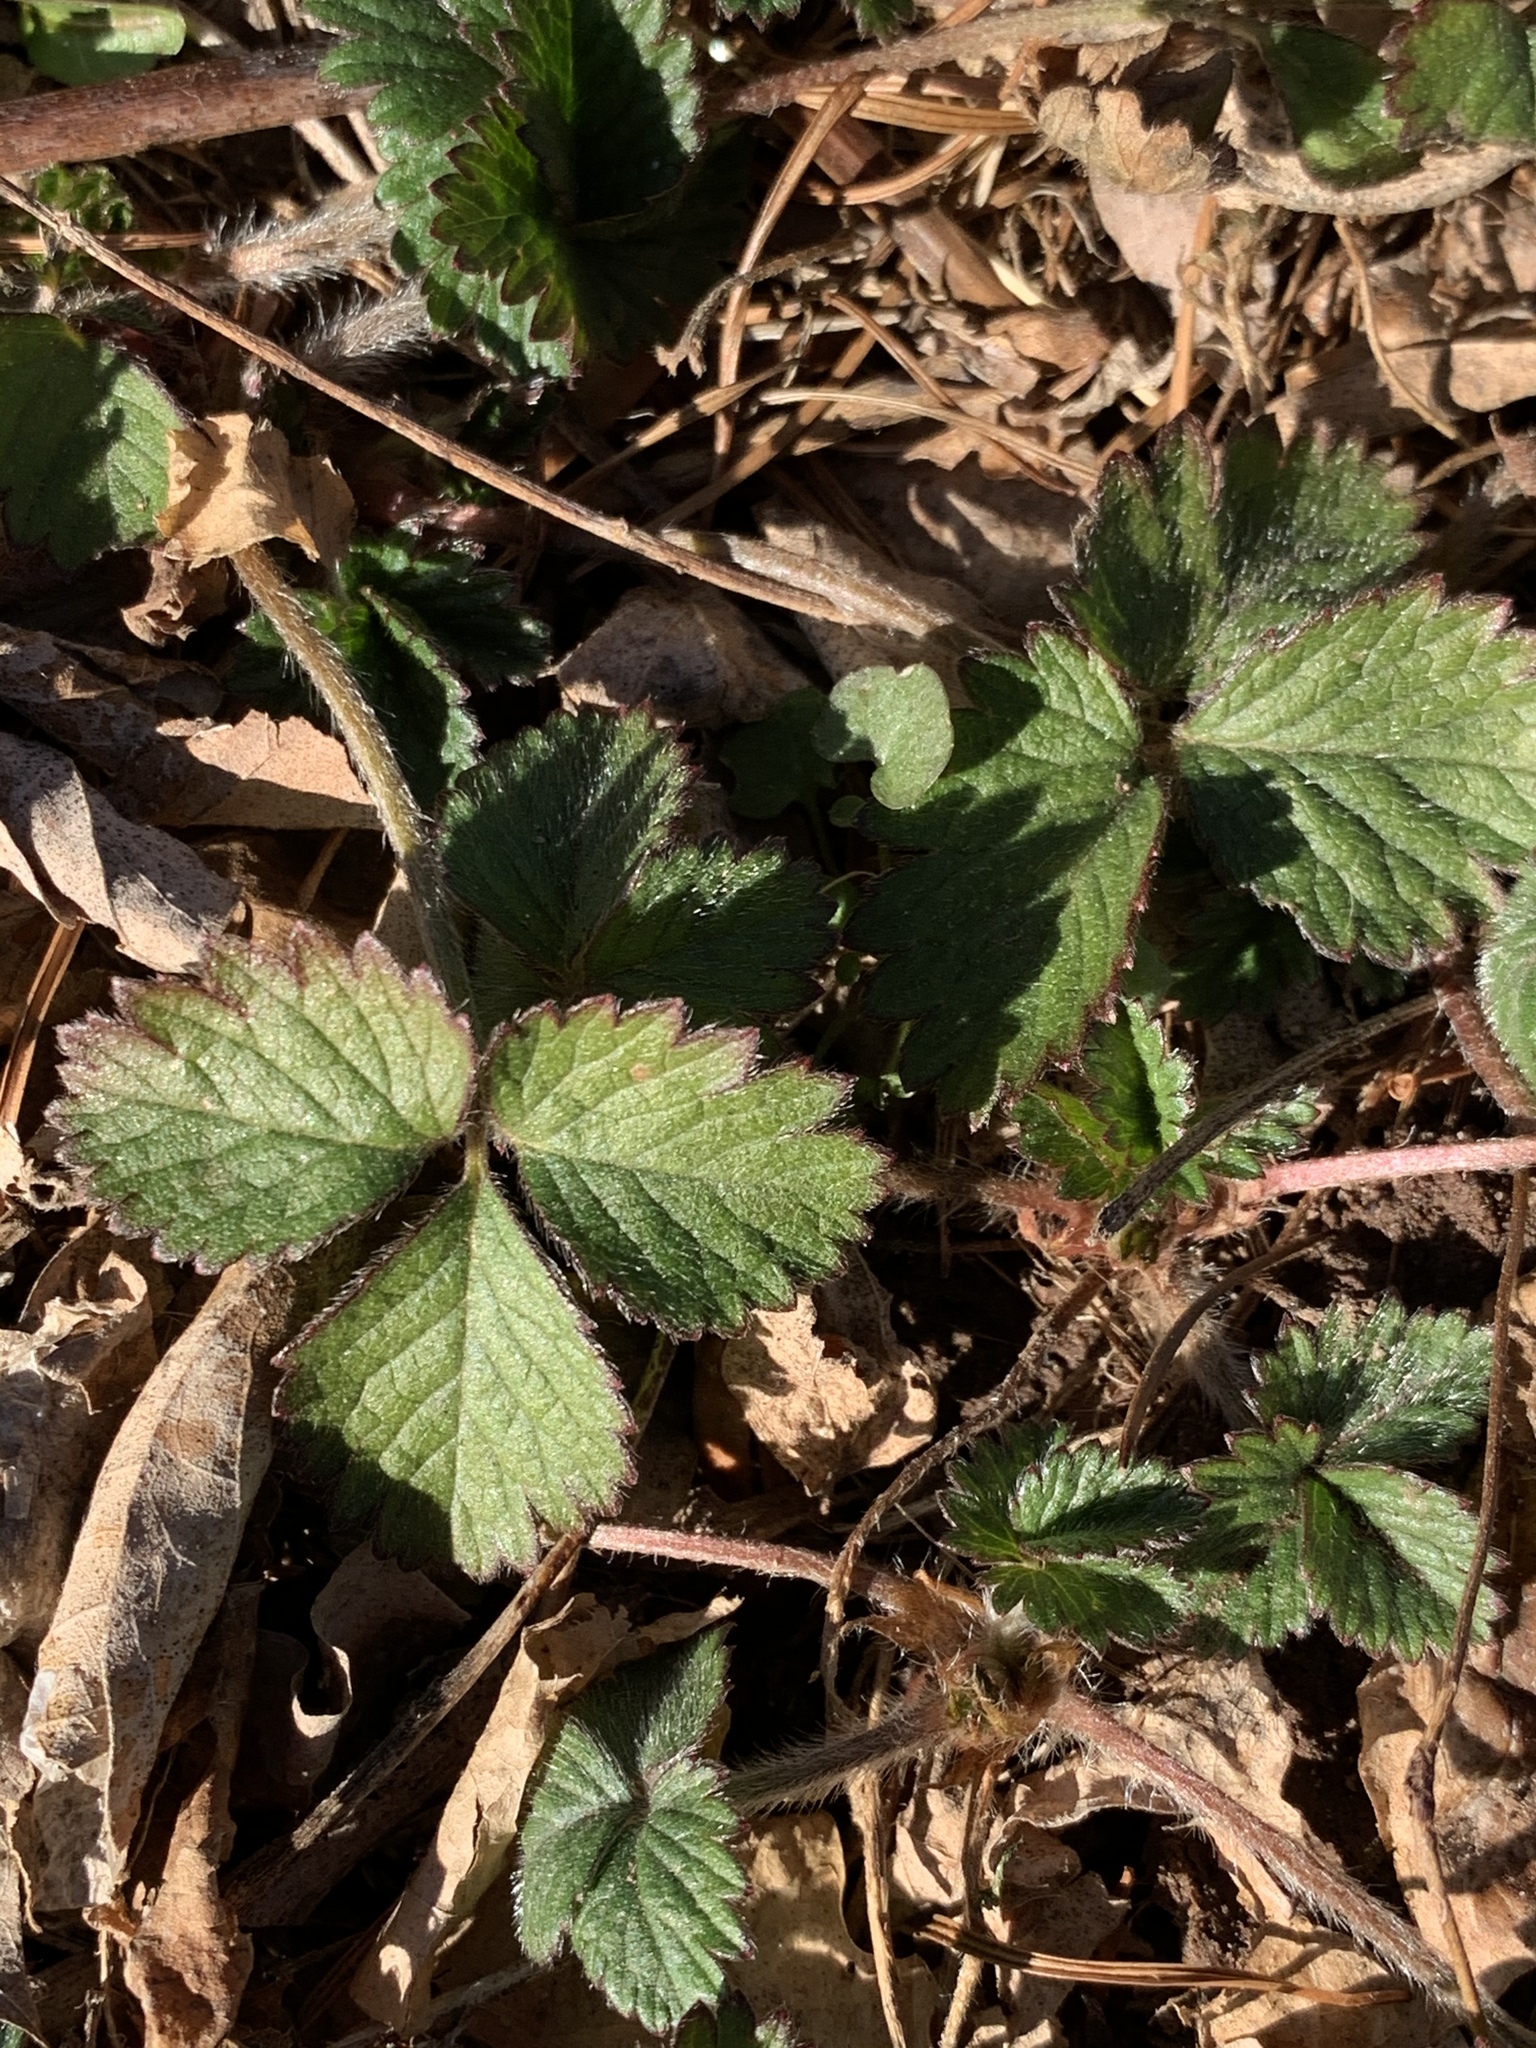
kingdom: Plantae
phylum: Tracheophyta
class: Magnoliopsida
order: Rosales
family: Rosaceae
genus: Potentilla
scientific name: Potentilla indica
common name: Yellow-flowered strawberry
